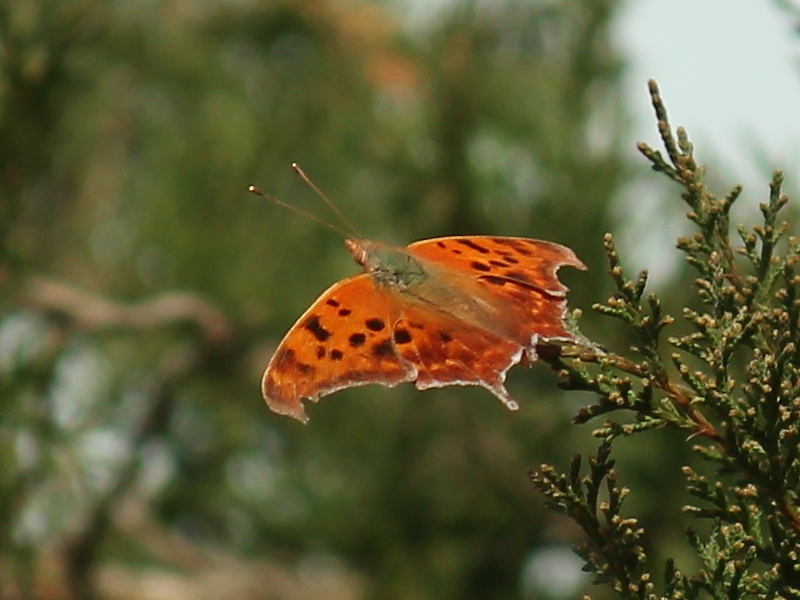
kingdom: Animalia
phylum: Arthropoda
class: Insecta
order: Lepidoptera
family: Nymphalidae
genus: Polygonia
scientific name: Polygonia interrogationis
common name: Question mark
